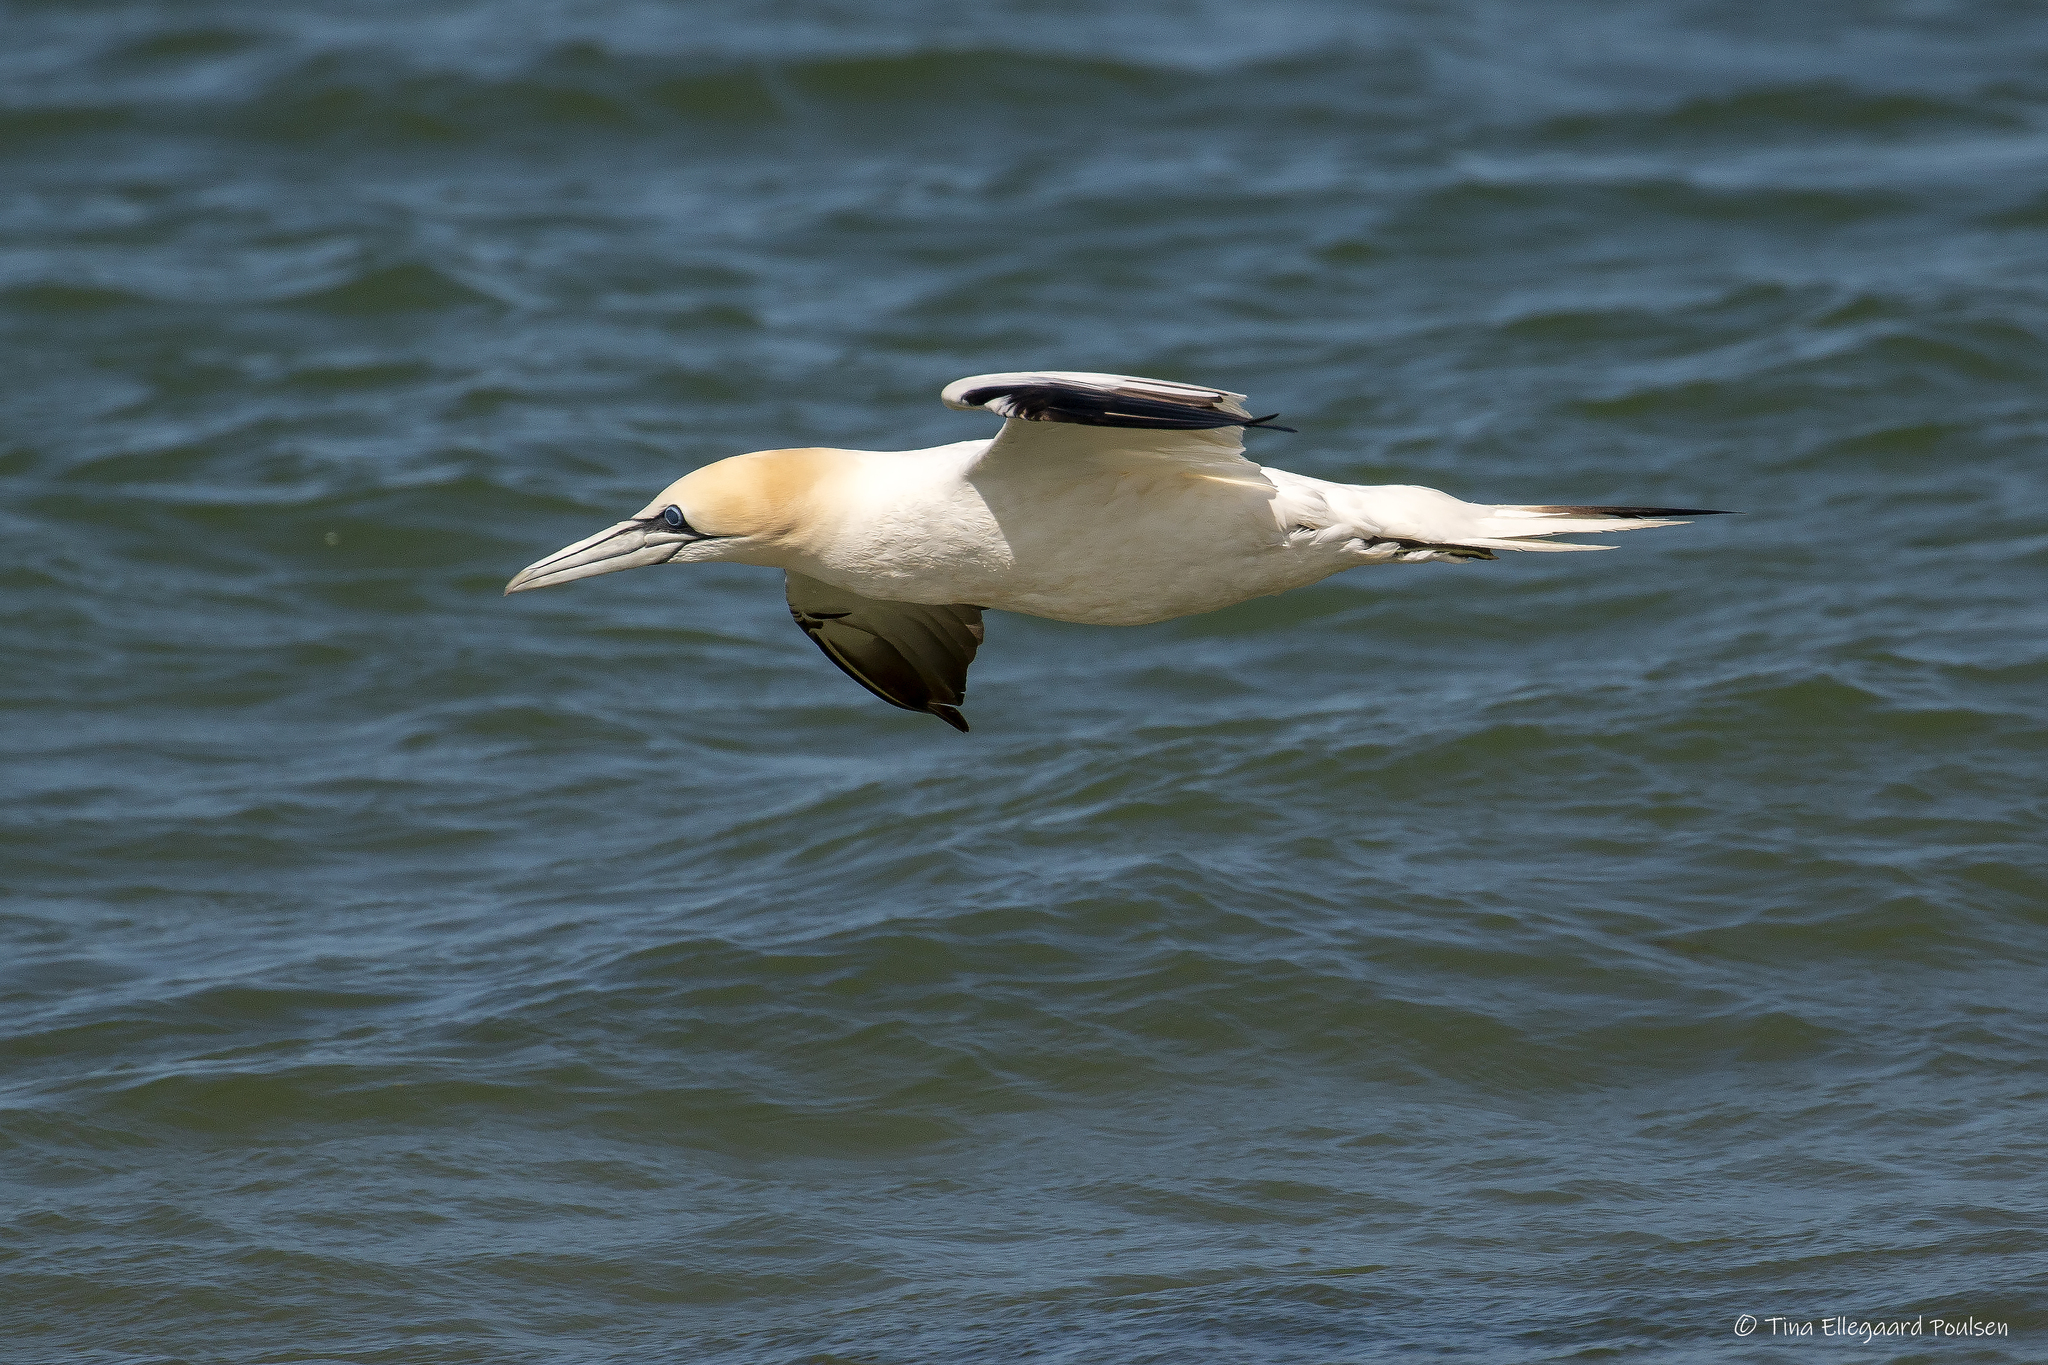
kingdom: Animalia
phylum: Chordata
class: Aves
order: Suliformes
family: Sulidae
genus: Morus
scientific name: Morus bassanus
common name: Northern gannet
